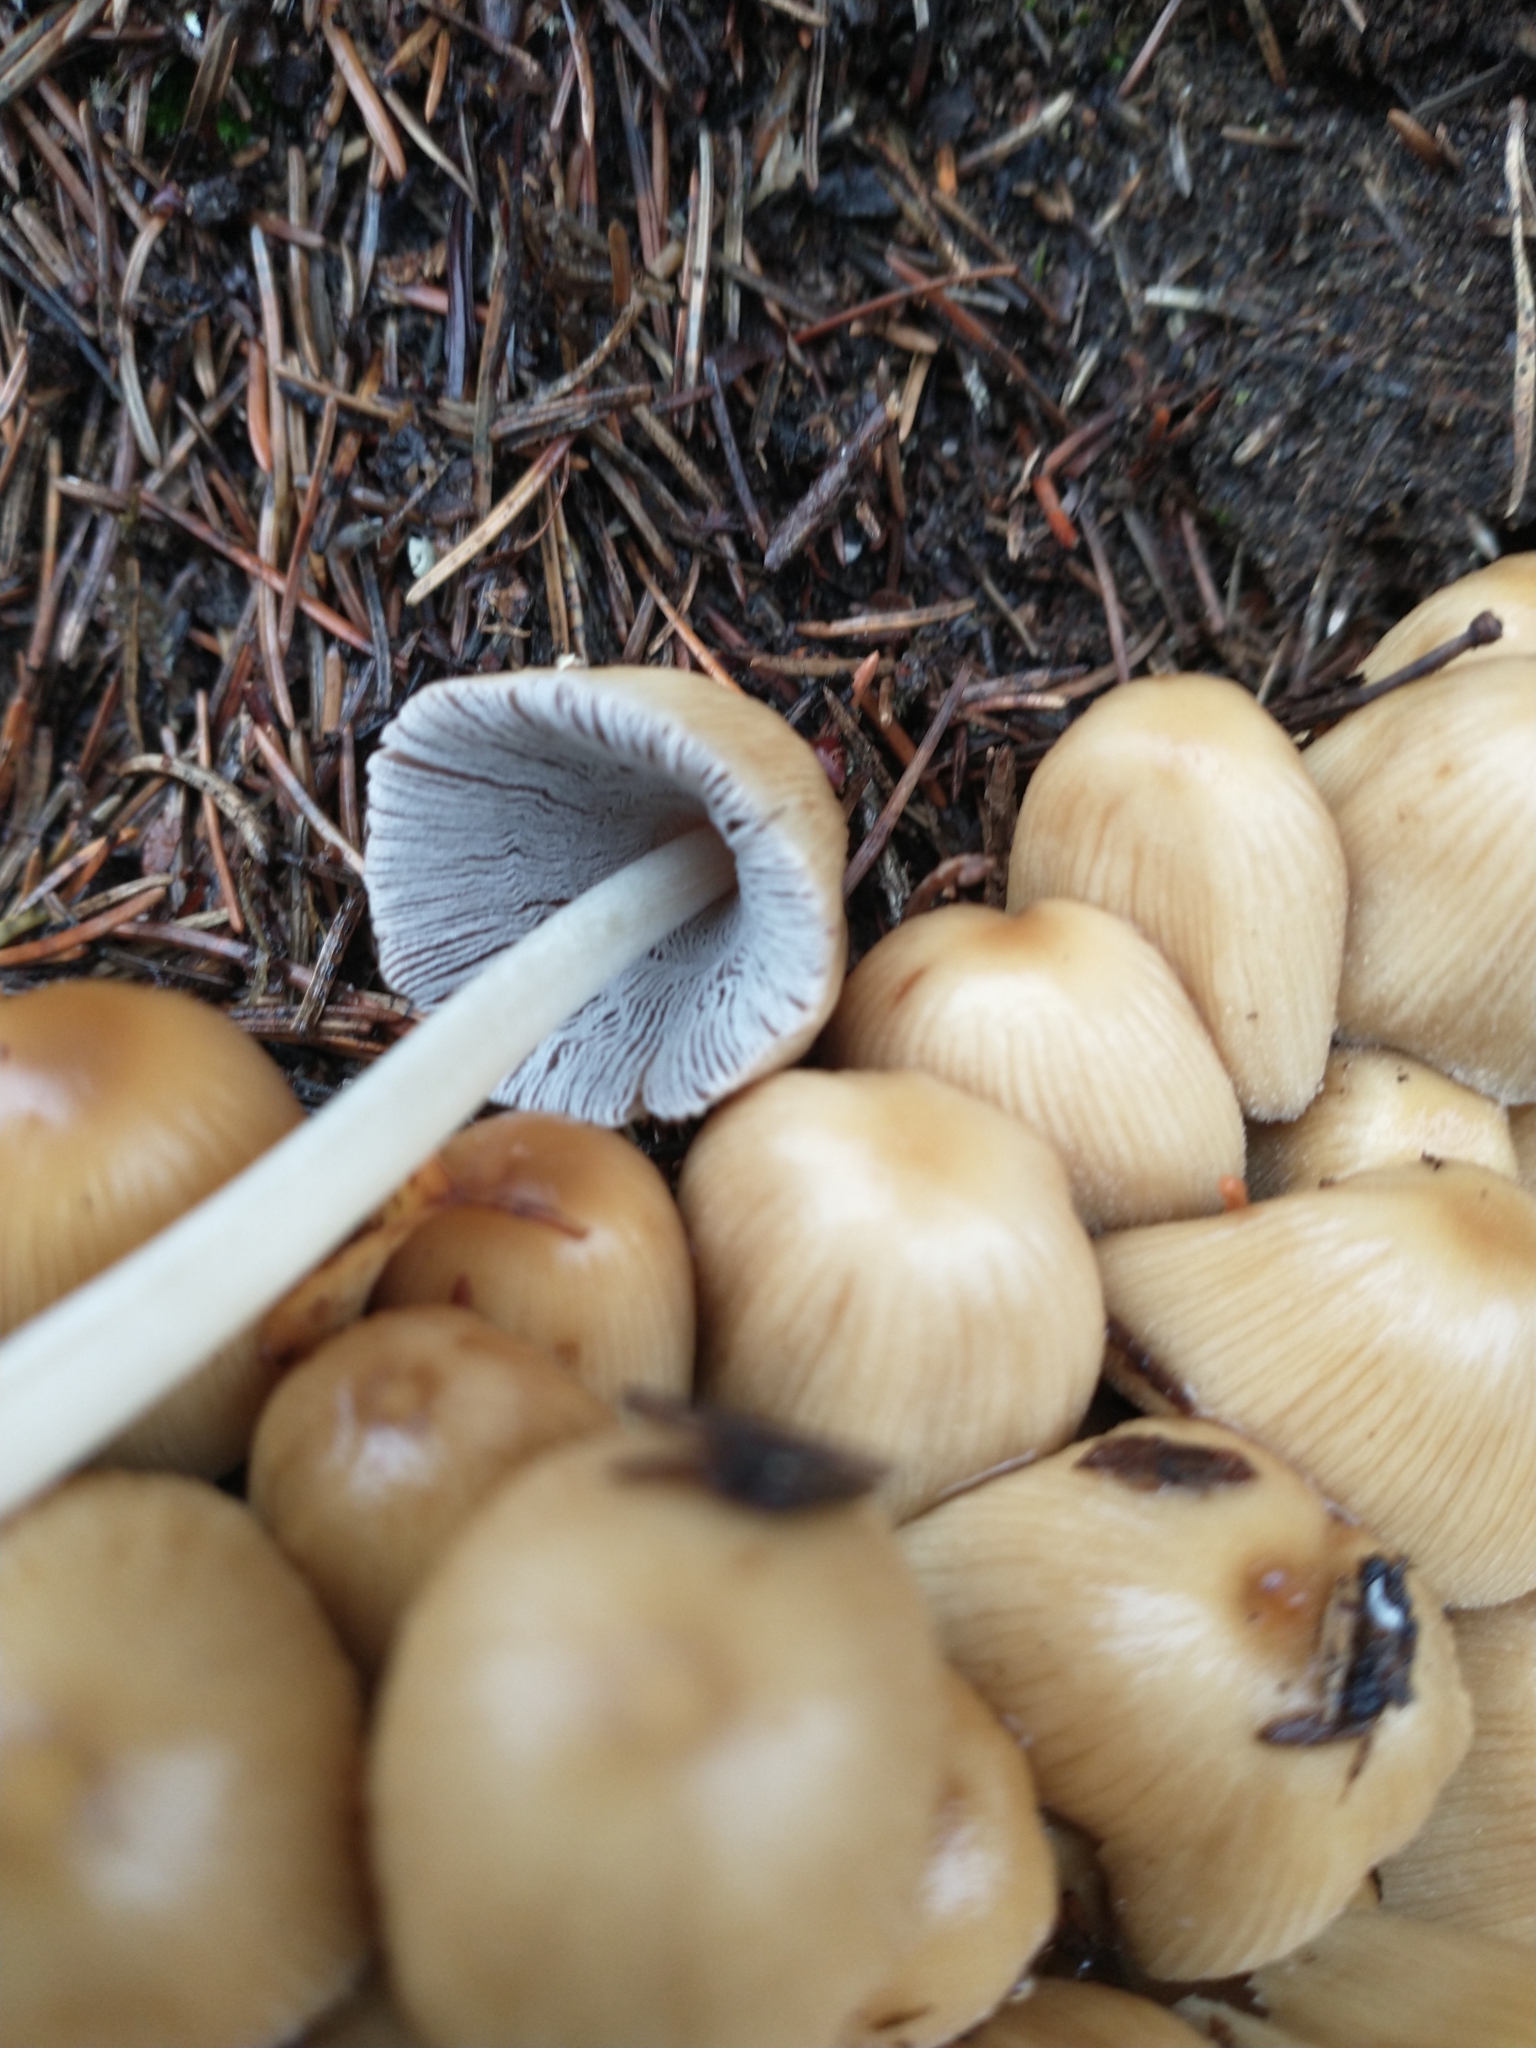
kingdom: Fungi
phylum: Basidiomycota
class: Agaricomycetes
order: Agaricales
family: Psathyrellaceae
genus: Coprinellus
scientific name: Coprinellus micaceus
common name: Glistening ink-cap
